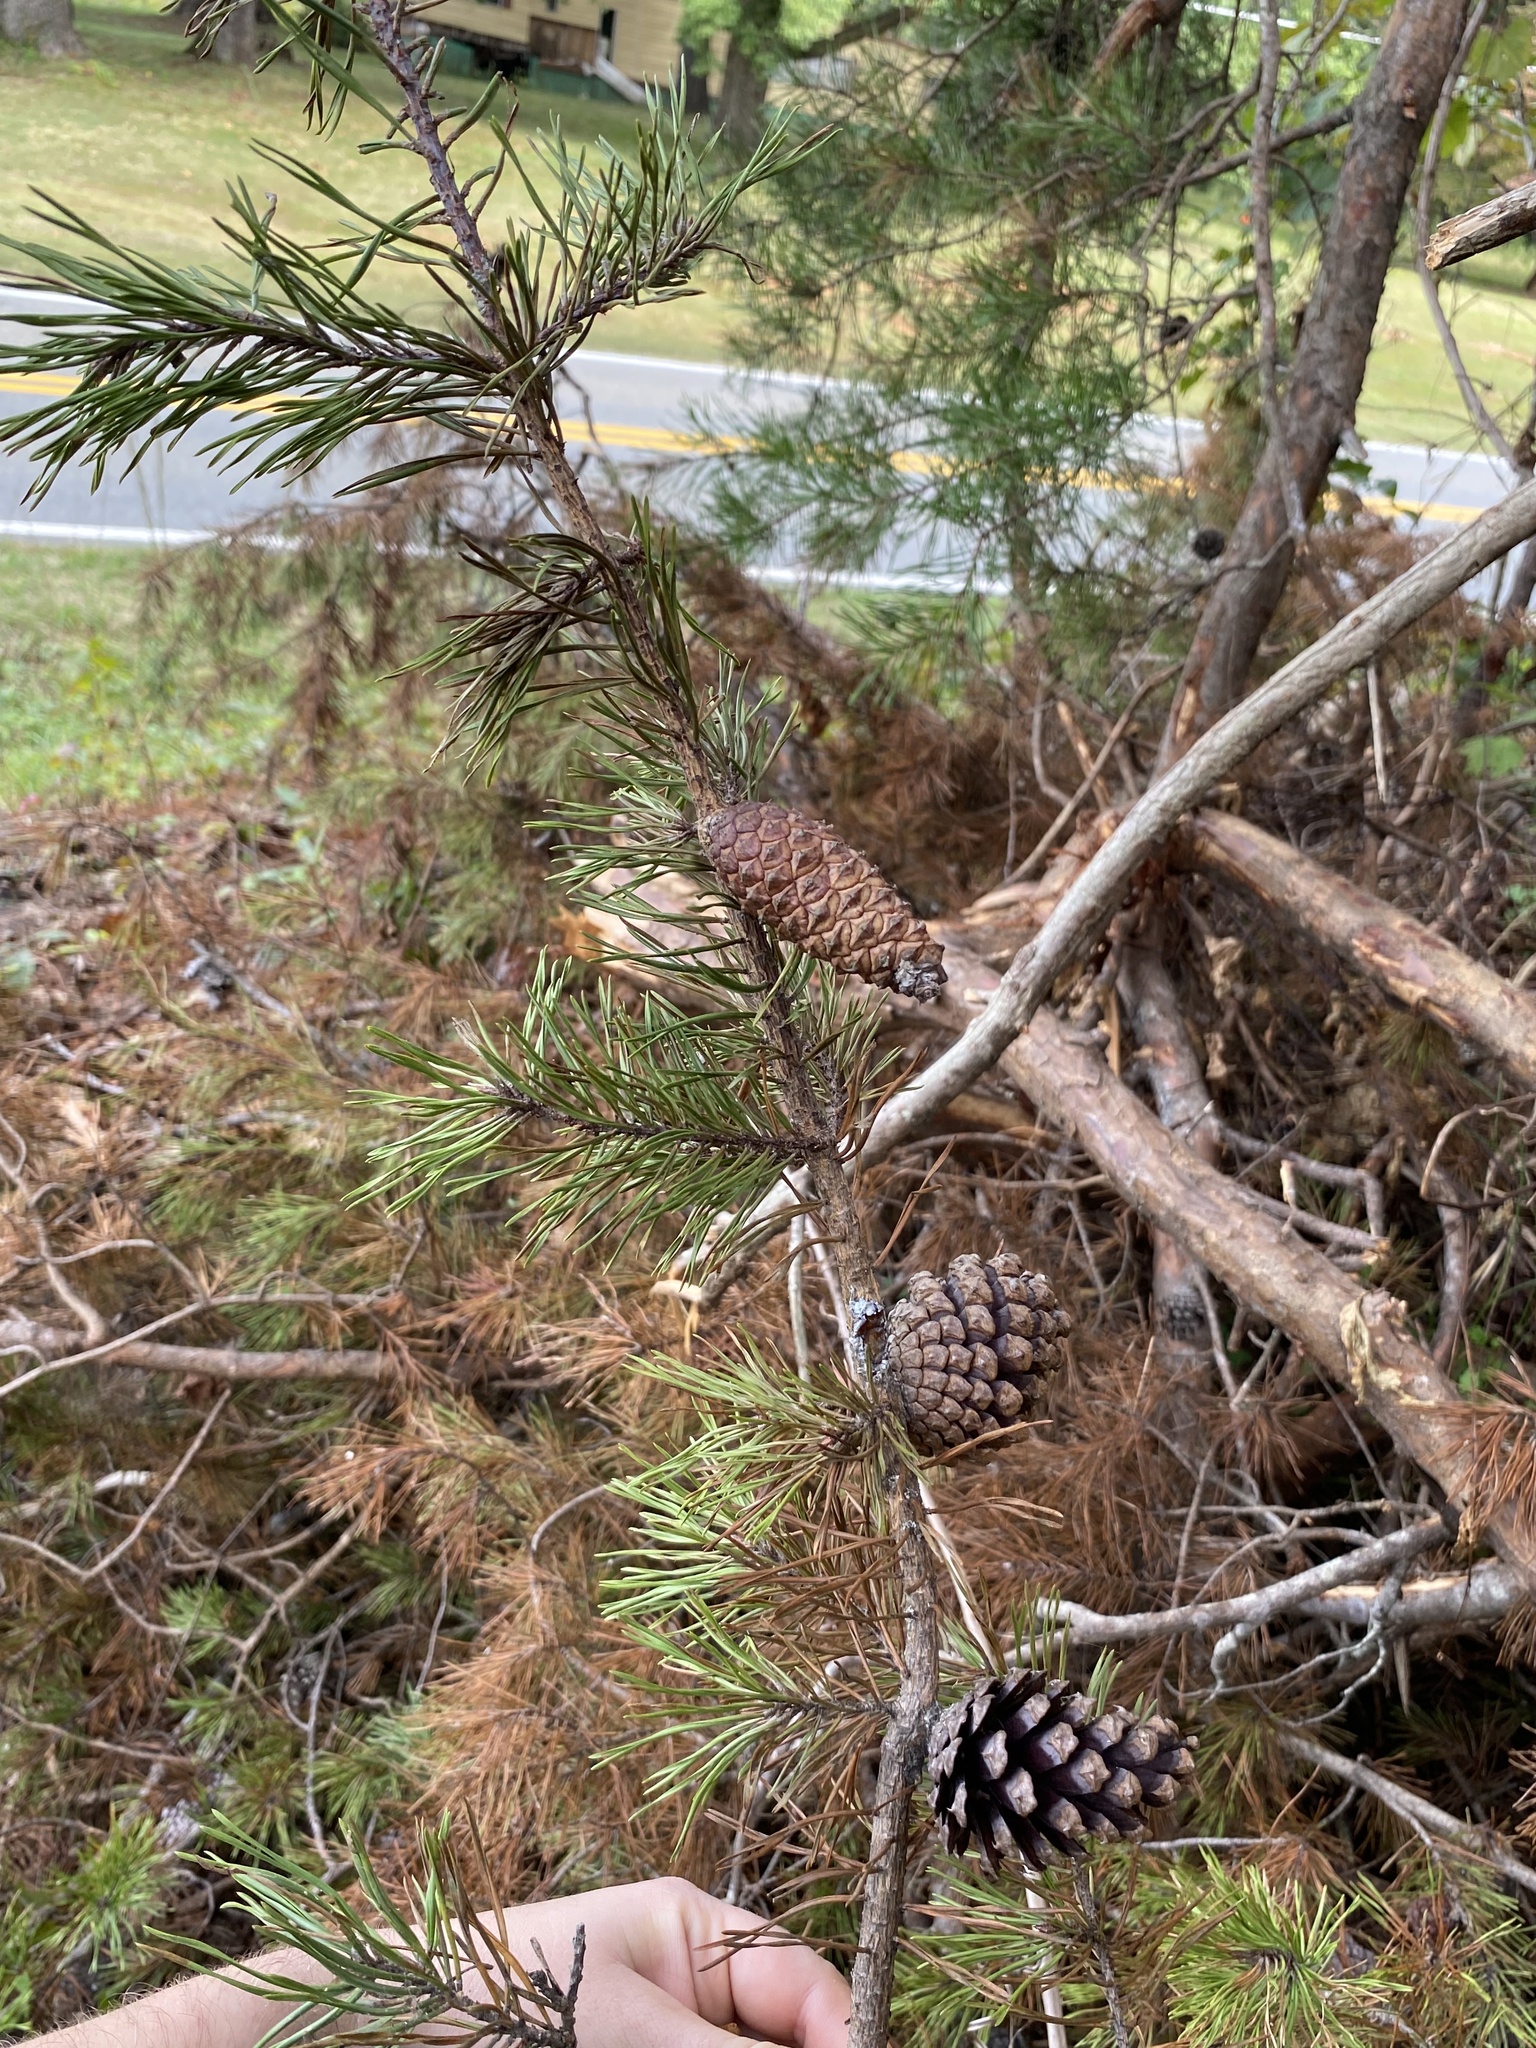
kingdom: Plantae
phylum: Tracheophyta
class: Pinopsida
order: Pinales
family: Pinaceae
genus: Pinus
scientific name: Pinus virginiana
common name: Scrub pine
